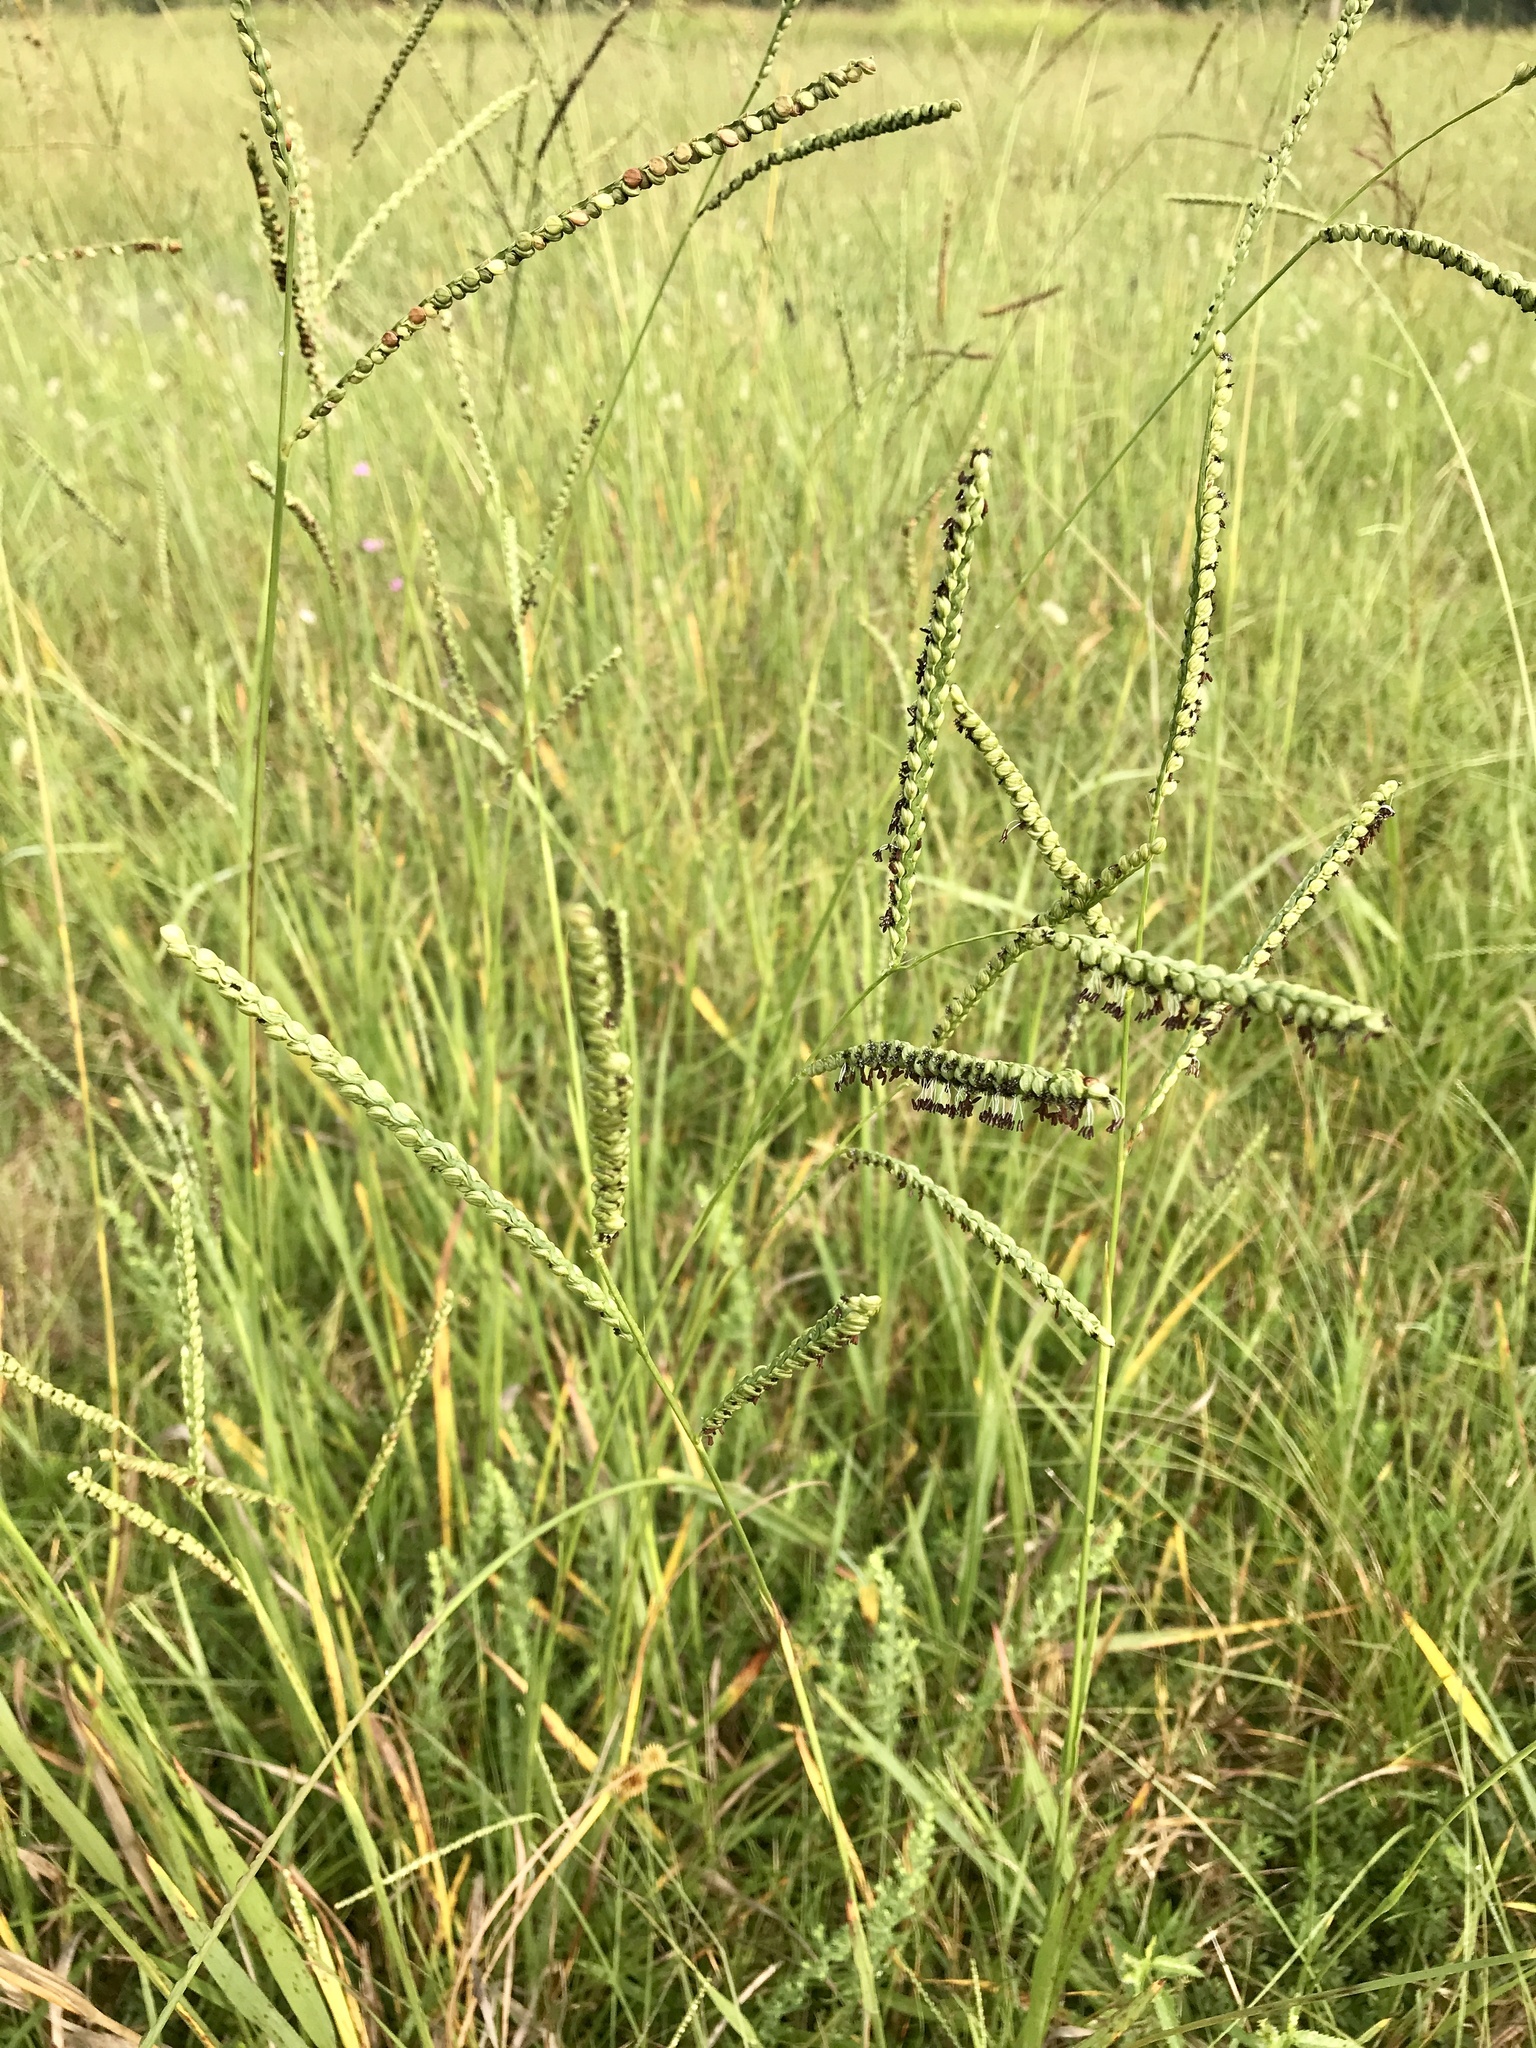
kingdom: Plantae
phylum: Tracheophyta
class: Liliopsida
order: Poales
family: Poaceae
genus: Paspalum
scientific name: Paspalum floridanum
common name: Florida paspalum
